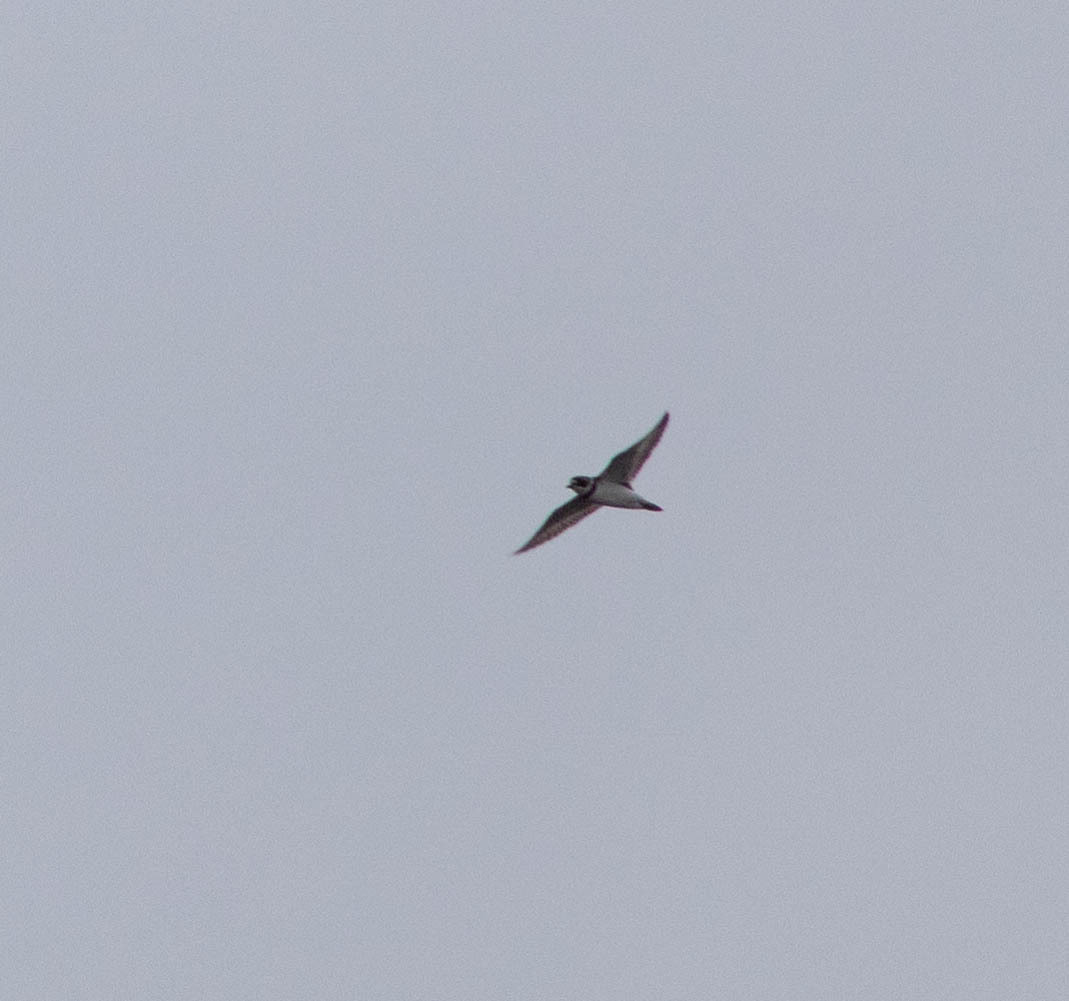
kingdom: Animalia
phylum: Chordata
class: Aves
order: Charadriiformes
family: Charadriidae
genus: Charadrius
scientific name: Charadrius semipalmatus
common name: Semipalmated plover
